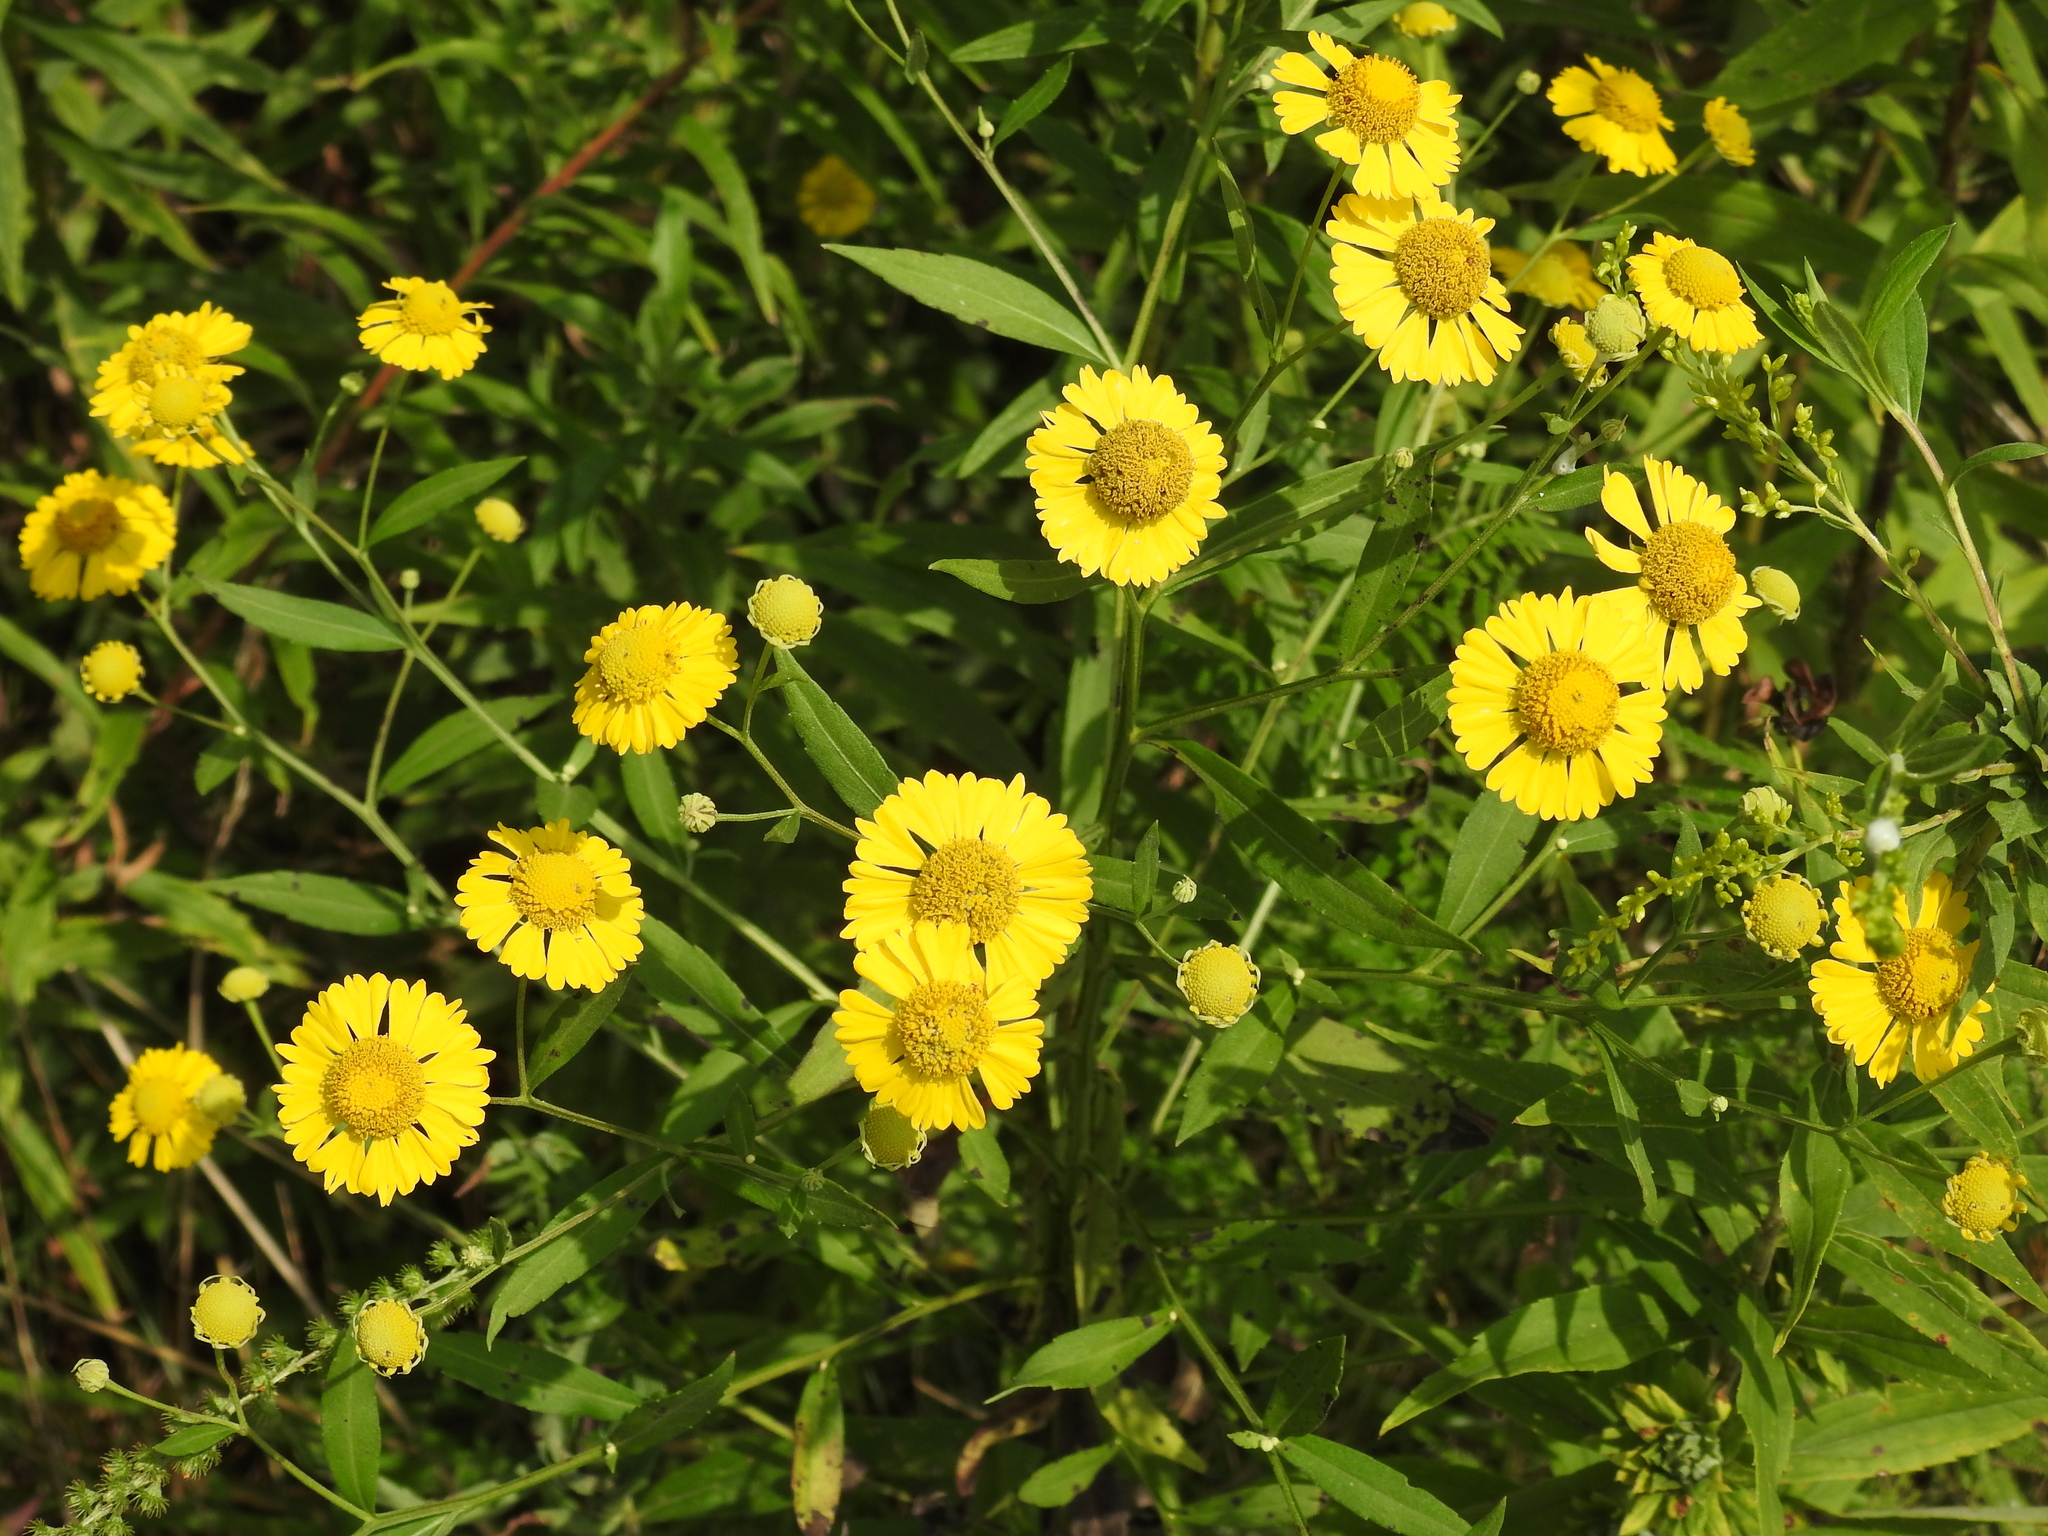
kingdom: Plantae
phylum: Tracheophyta
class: Magnoliopsida
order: Asterales
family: Asteraceae
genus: Helenium
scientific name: Helenium autumnale
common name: Sneezeweed
